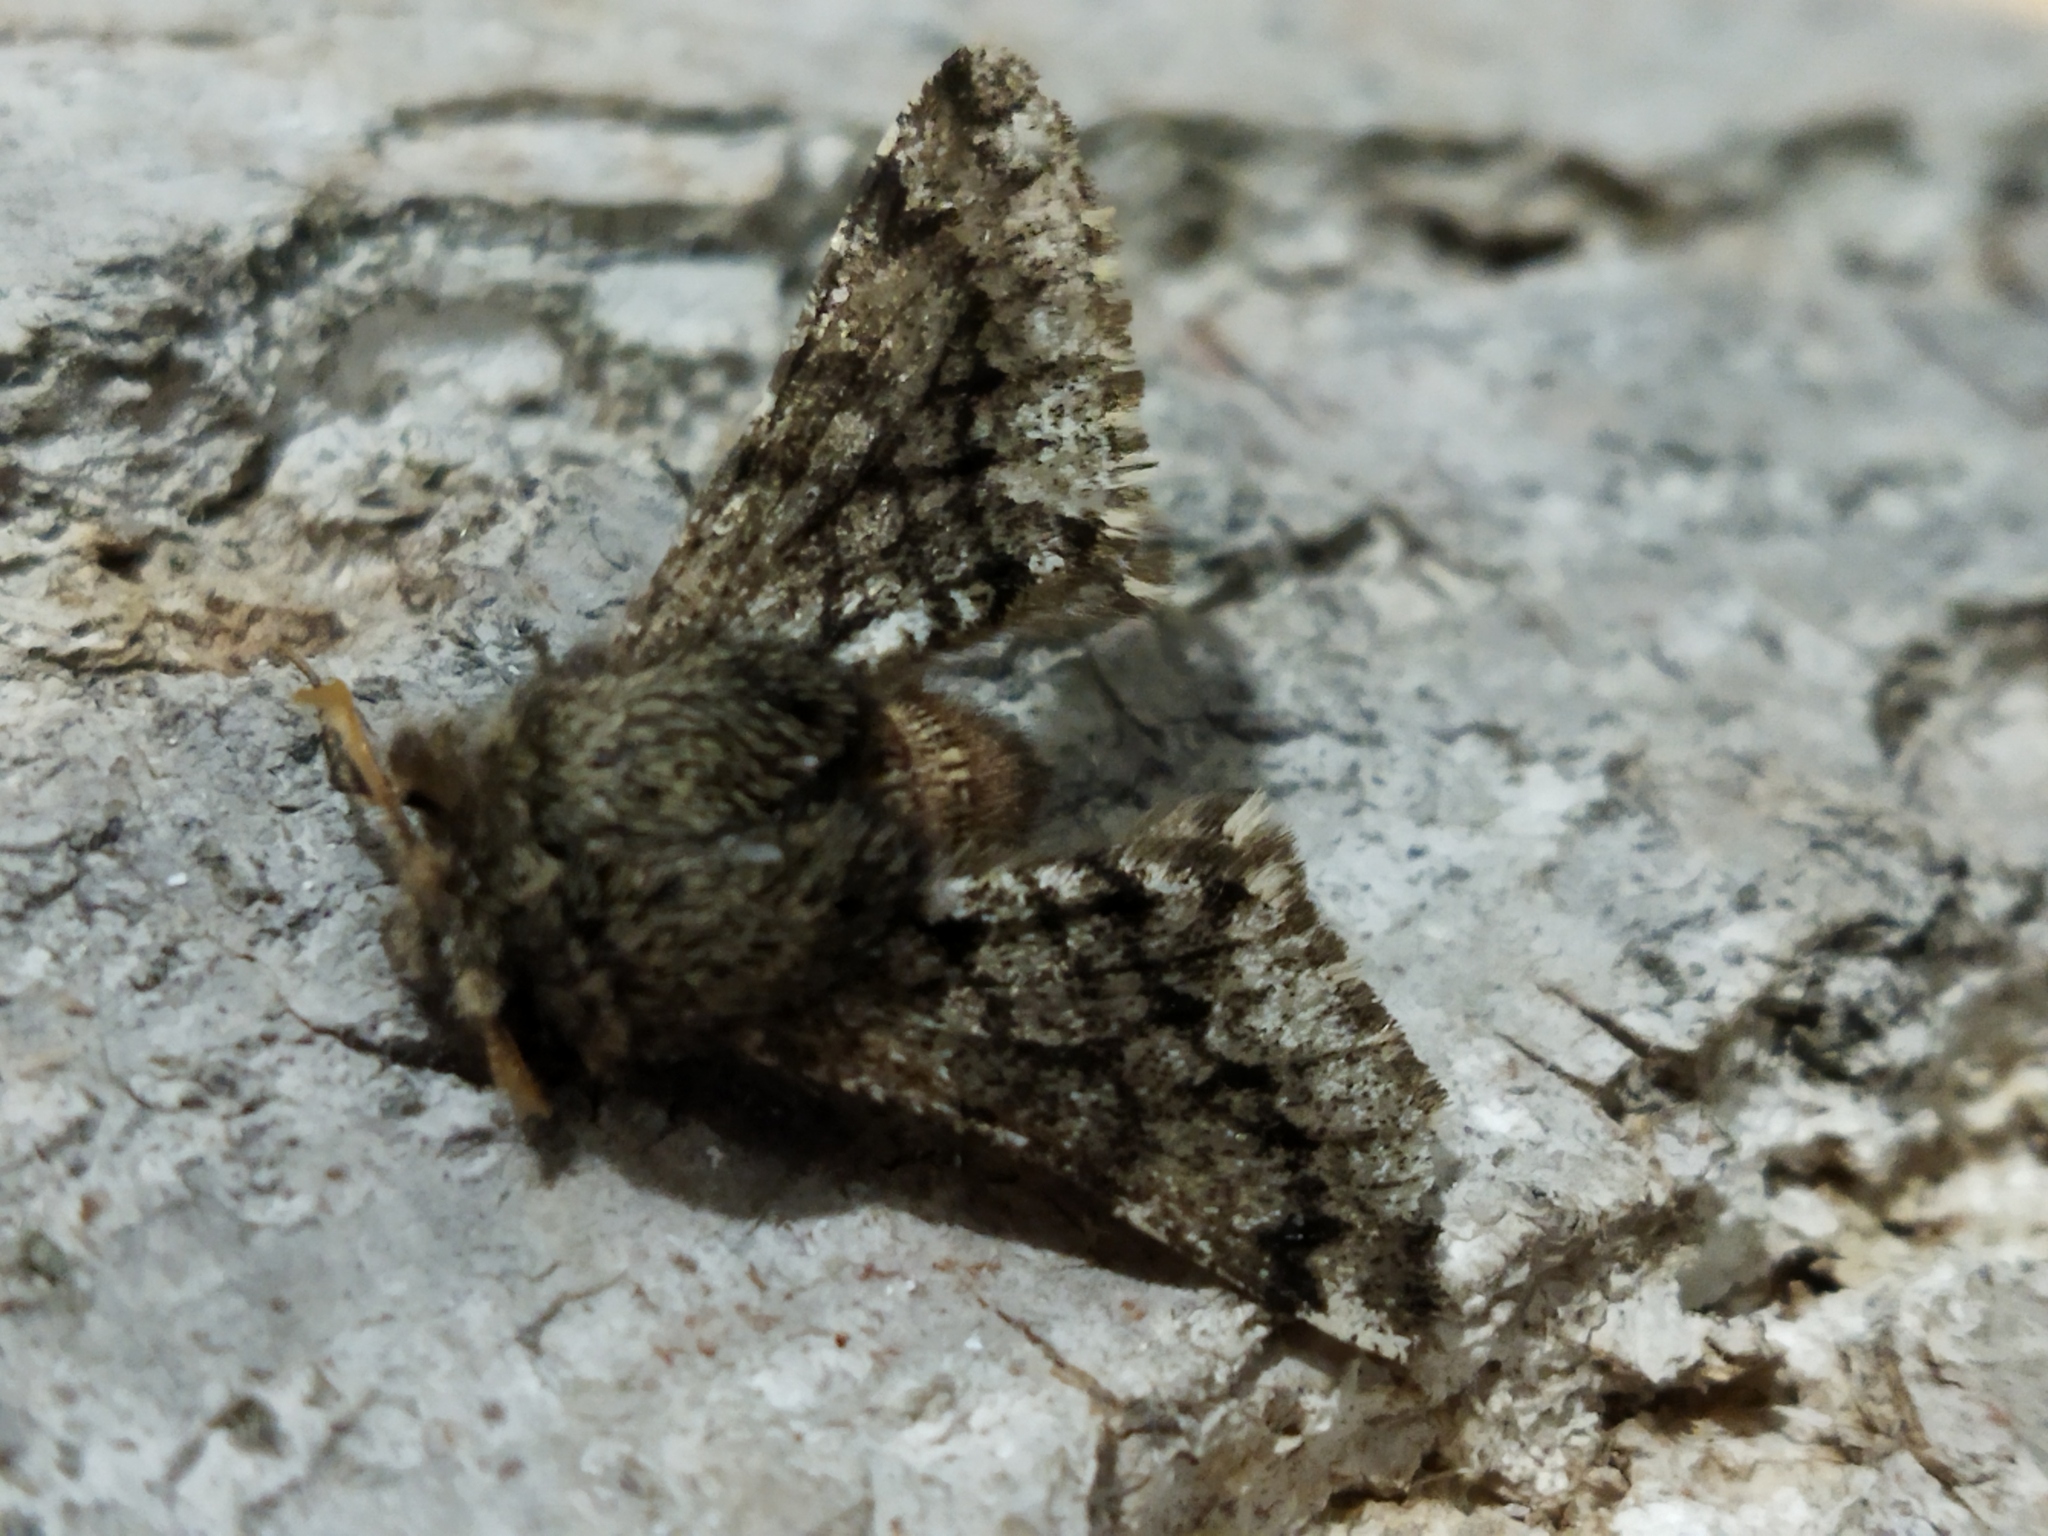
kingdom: Animalia
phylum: Arthropoda
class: Insecta
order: Lepidoptera
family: Geometridae
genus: Apocheima
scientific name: Apocheima hispidaria
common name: Small brindled beauty
